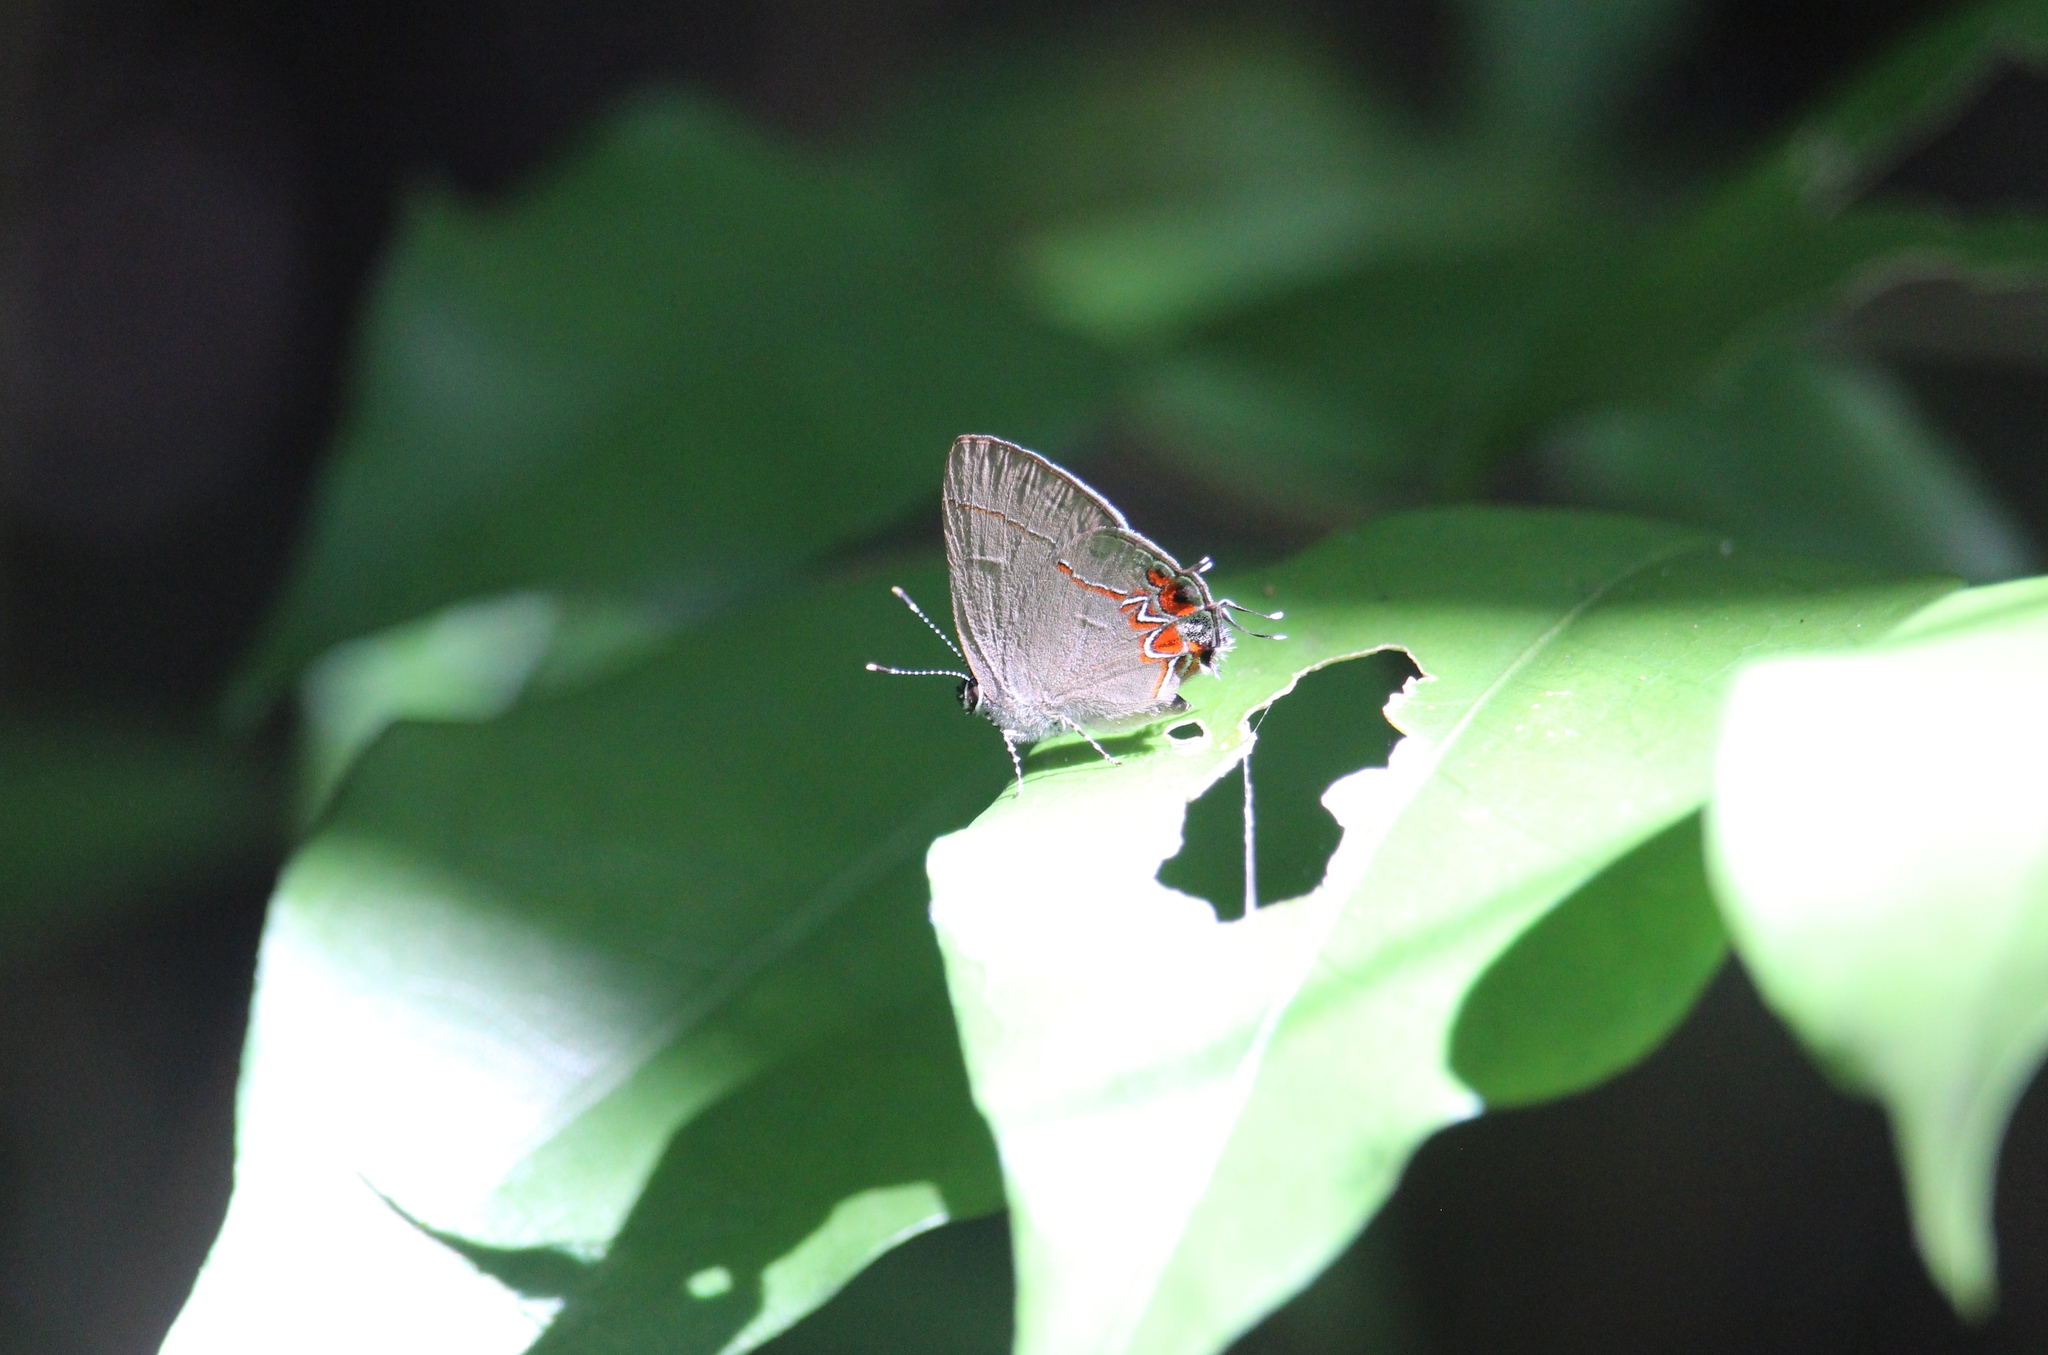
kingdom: Animalia
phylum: Arthropoda
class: Insecta
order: Lepidoptera
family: Lycaenidae
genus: Calycopis
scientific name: Calycopis isobeon
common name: Dusky-blue groundstreak
